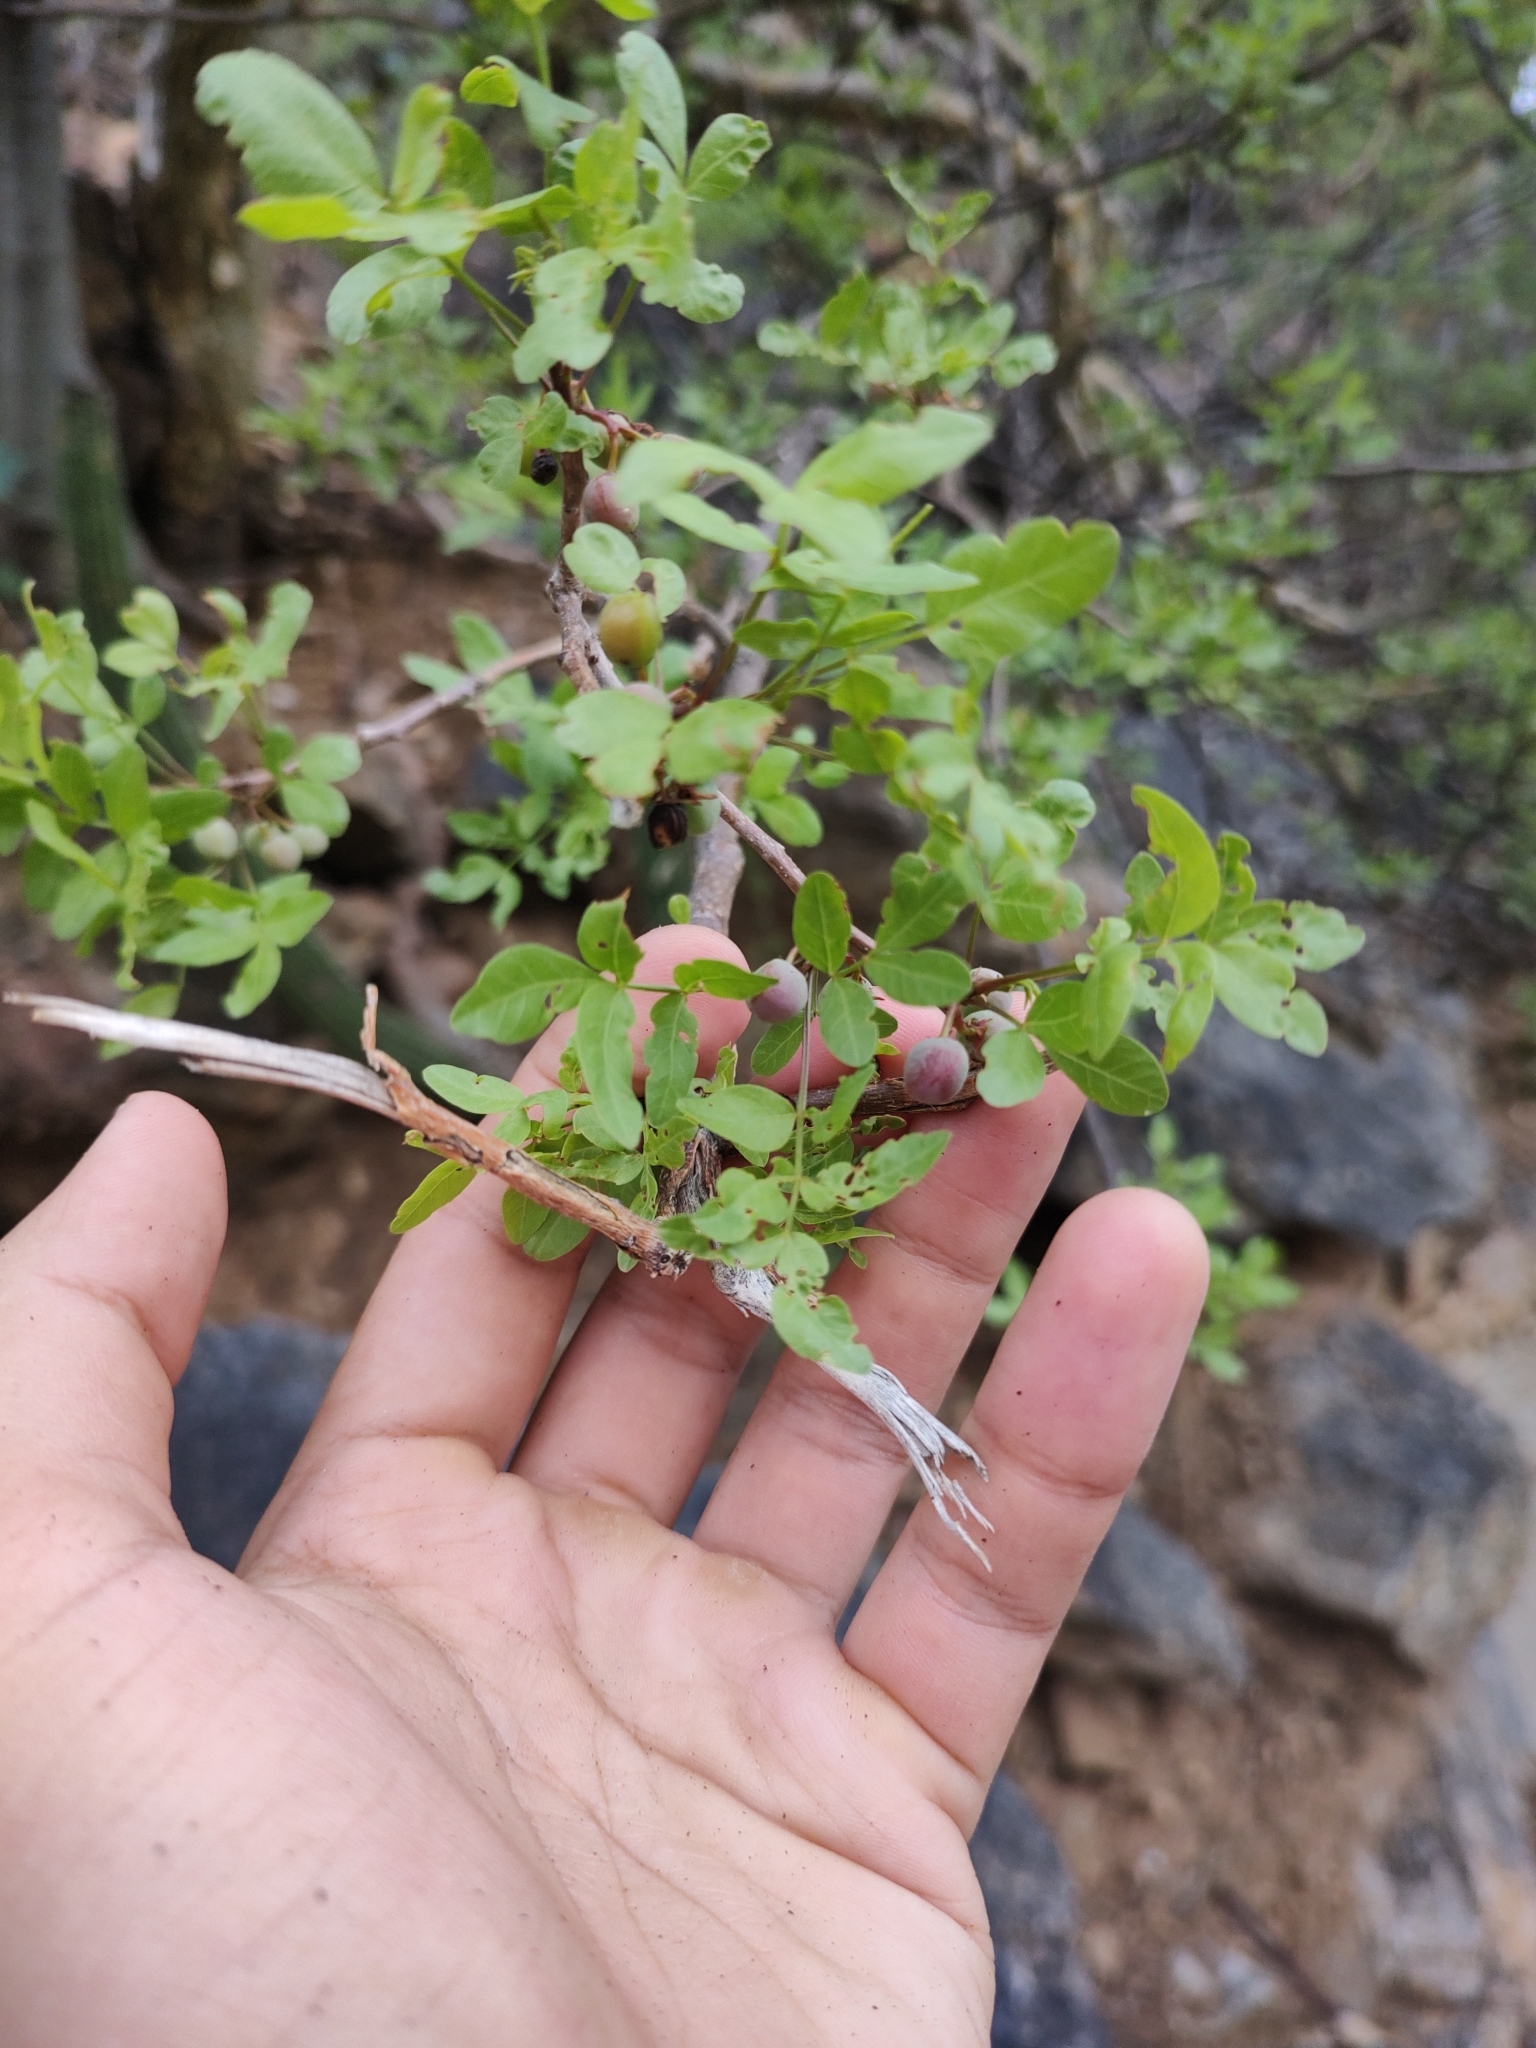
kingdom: Plantae
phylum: Tracheophyta
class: Magnoliopsida
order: Sapindales
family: Burseraceae
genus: Bursera
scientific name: Bursera fagaroides
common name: Elephant tree
